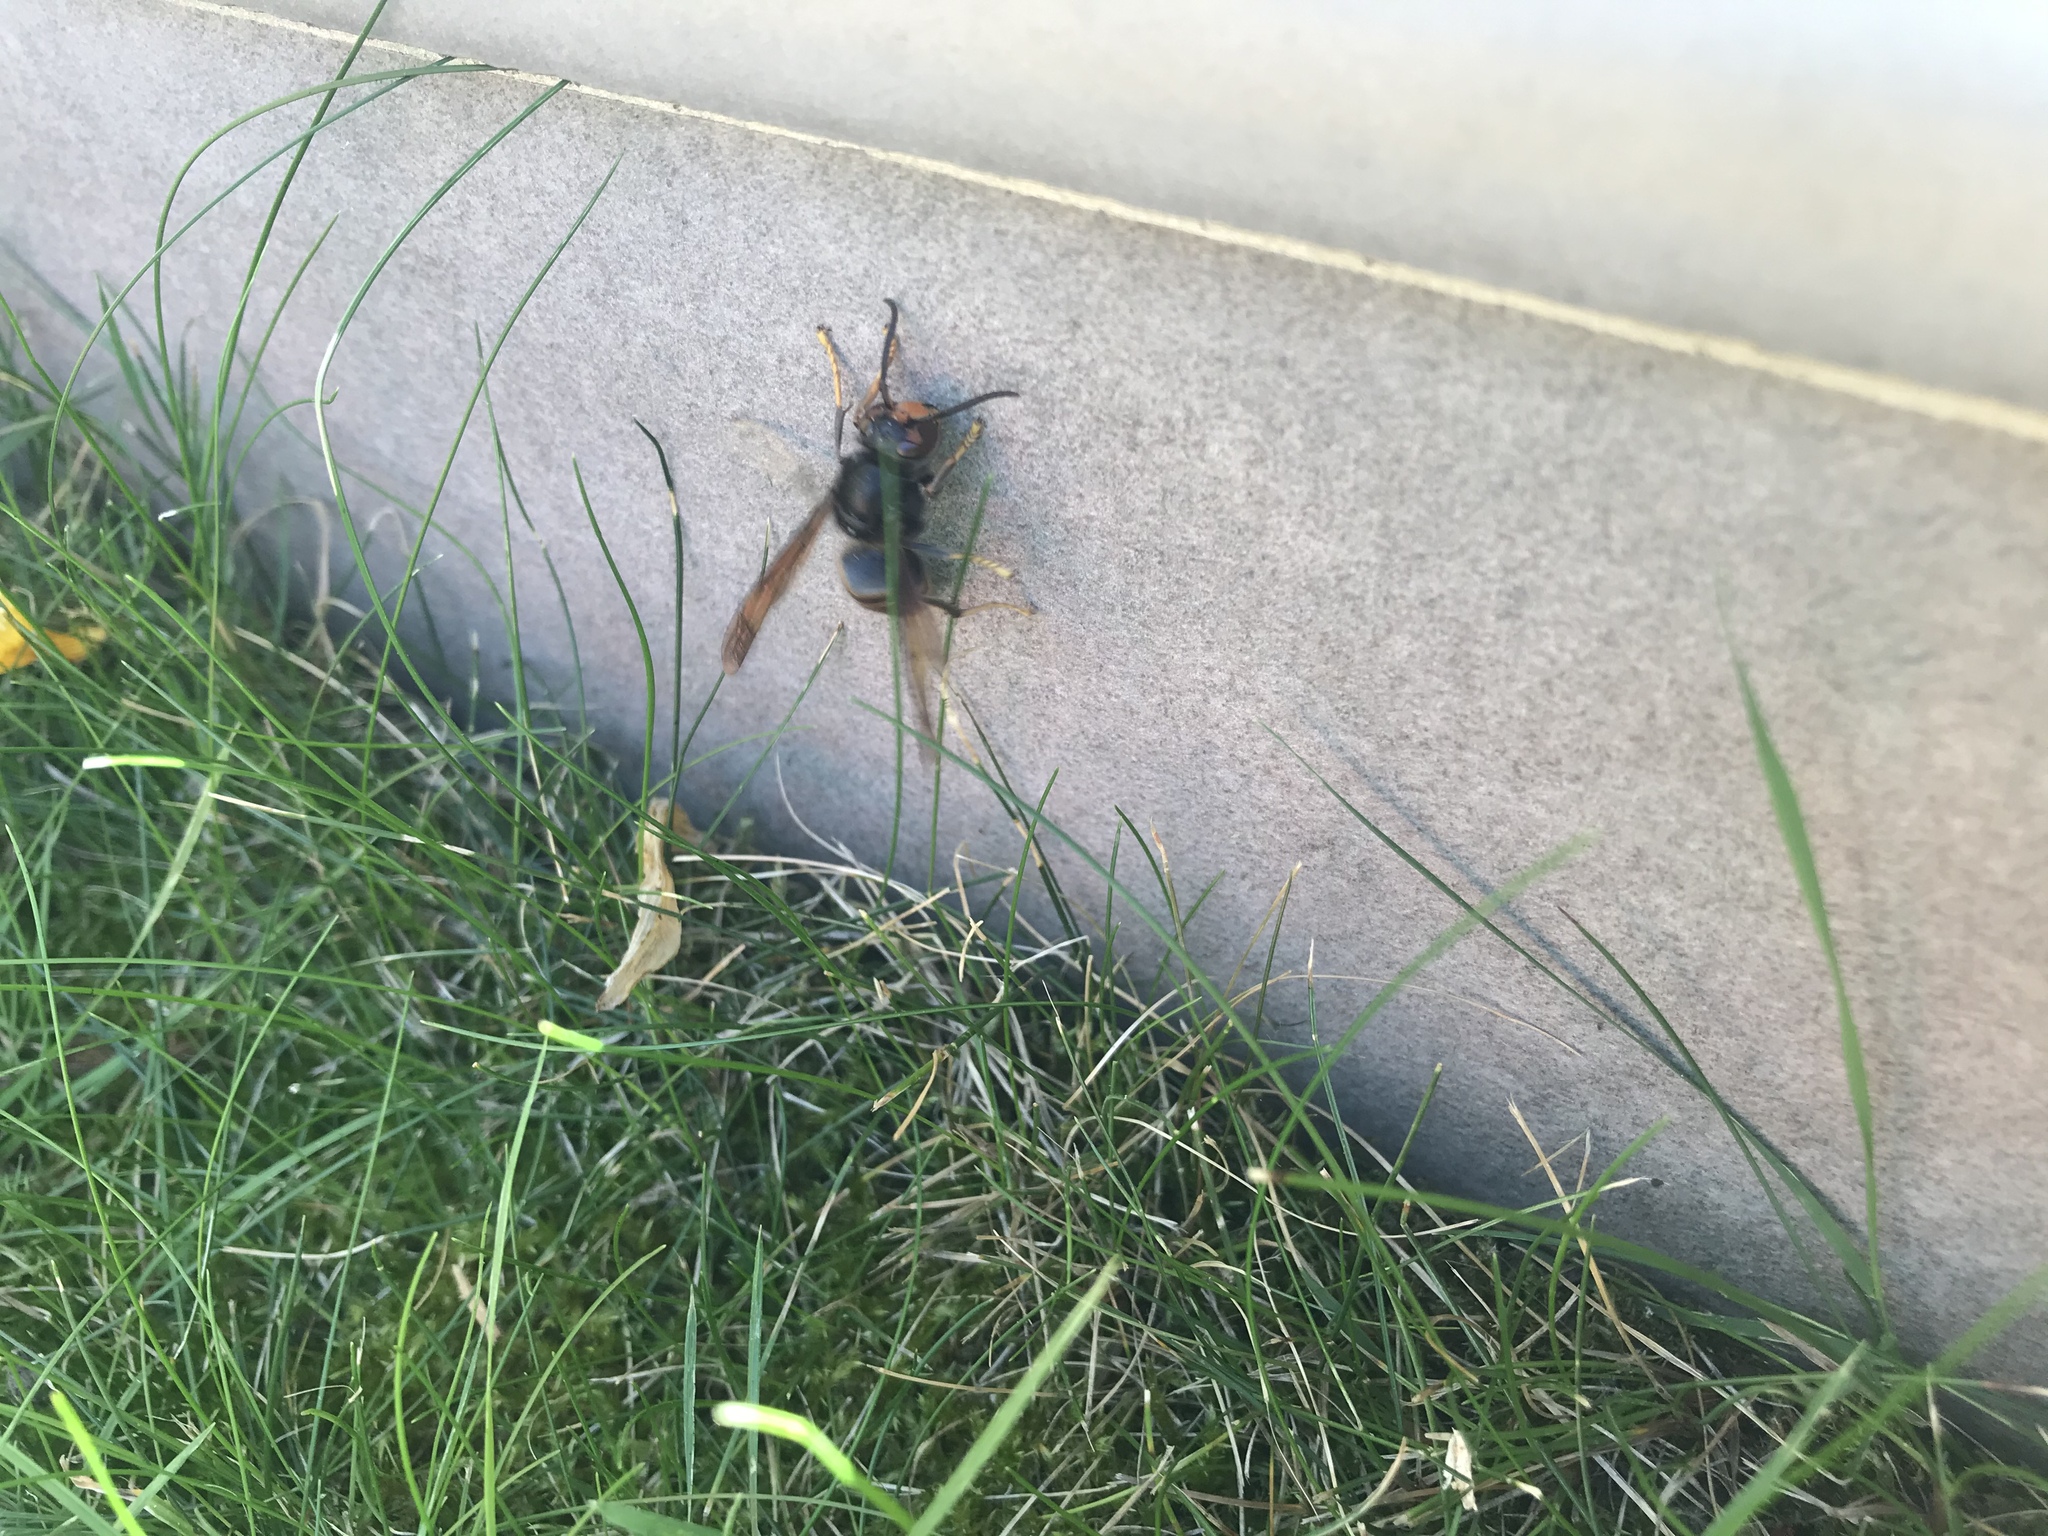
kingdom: Animalia
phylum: Arthropoda
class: Insecta
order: Hymenoptera
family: Vespidae
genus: Vespa
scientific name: Vespa velutina
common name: Asian hornet
